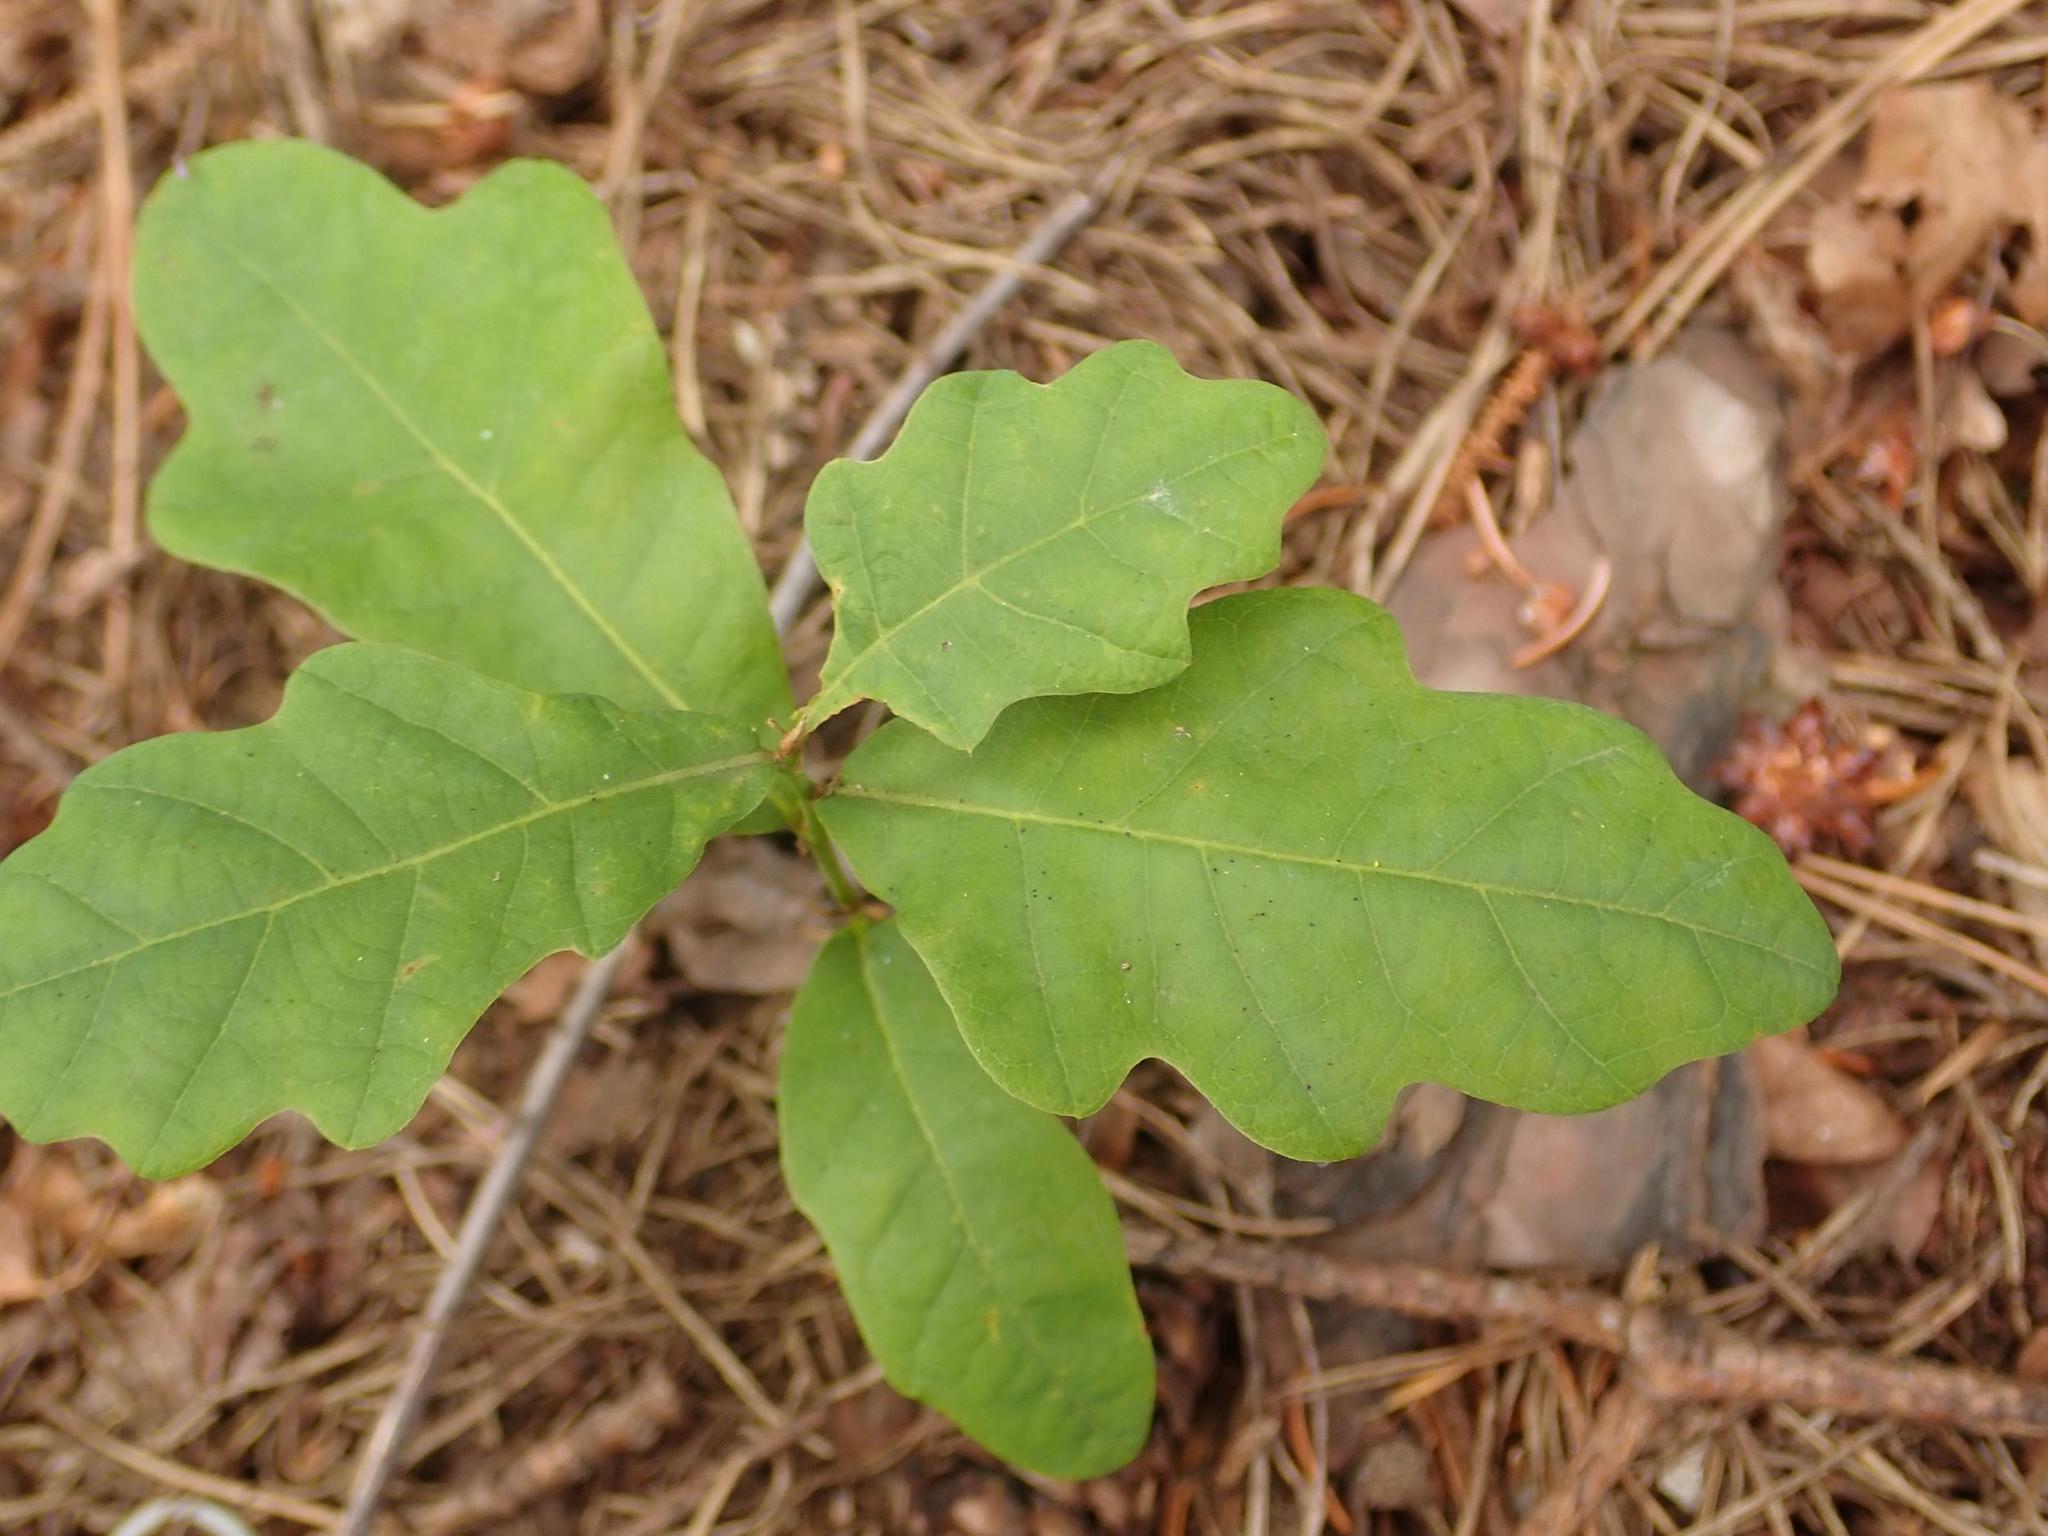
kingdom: Plantae
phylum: Tracheophyta
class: Magnoliopsida
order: Fagales
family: Fagaceae
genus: Quercus
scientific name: Quercus robur
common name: Pedunculate oak
